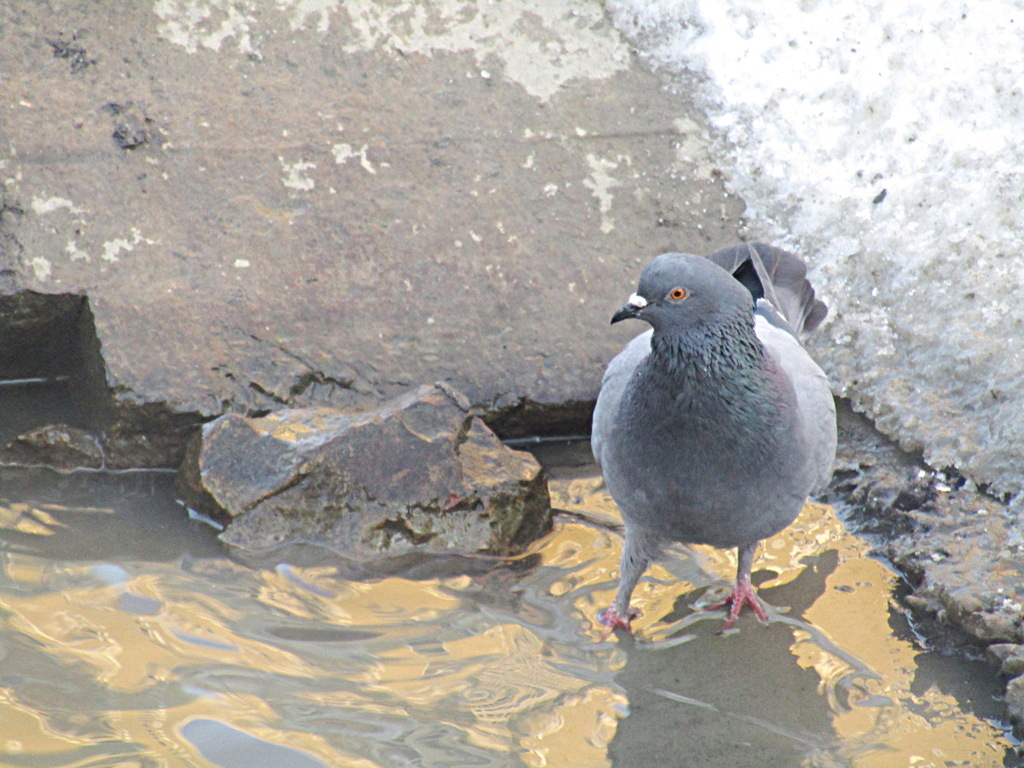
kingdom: Animalia
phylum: Chordata
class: Aves
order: Columbiformes
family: Columbidae
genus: Columba
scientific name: Columba livia
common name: Rock pigeon
